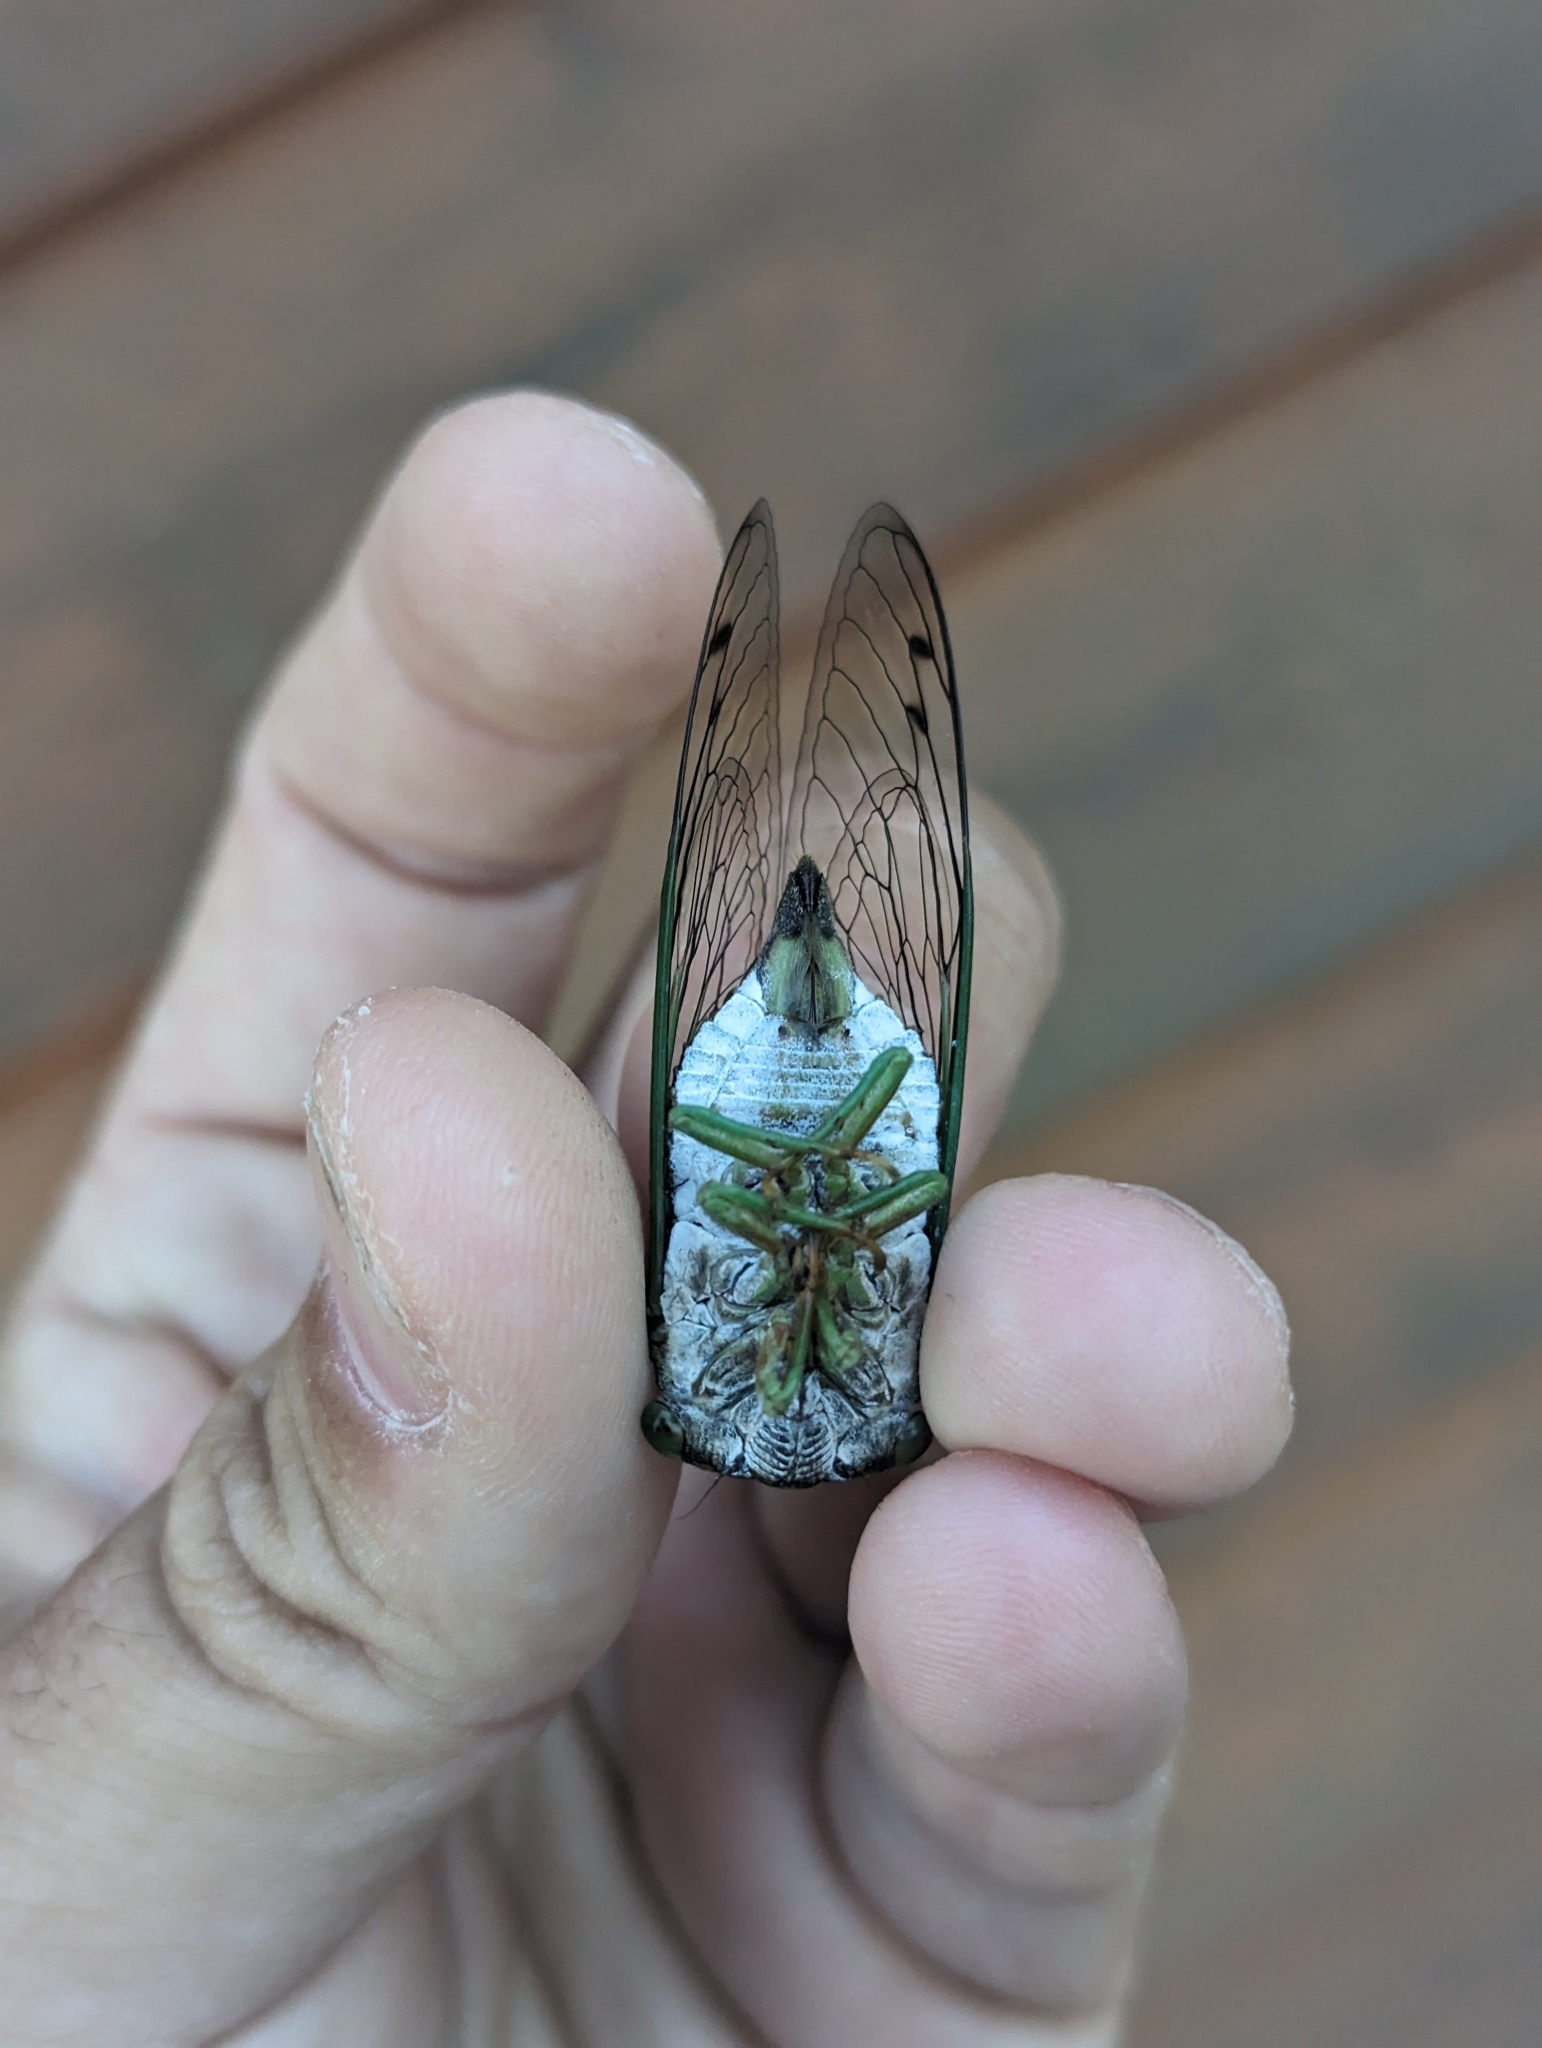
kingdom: Animalia
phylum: Arthropoda
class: Insecta
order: Hemiptera
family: Cicadidae
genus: Neotibicen
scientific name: Neotibicen tibicen
